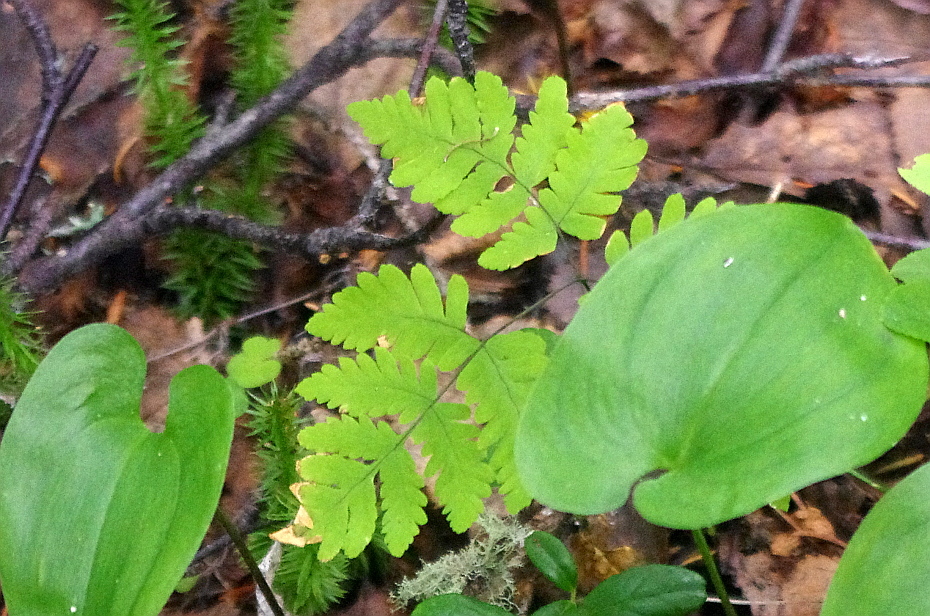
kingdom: Plantae
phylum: Tracheophyta
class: Polypodiopsida
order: Polypodiales
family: Cystopteridaceae
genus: Gymnocarpium
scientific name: Gymnocarpium dryopteris
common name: Oak fern
